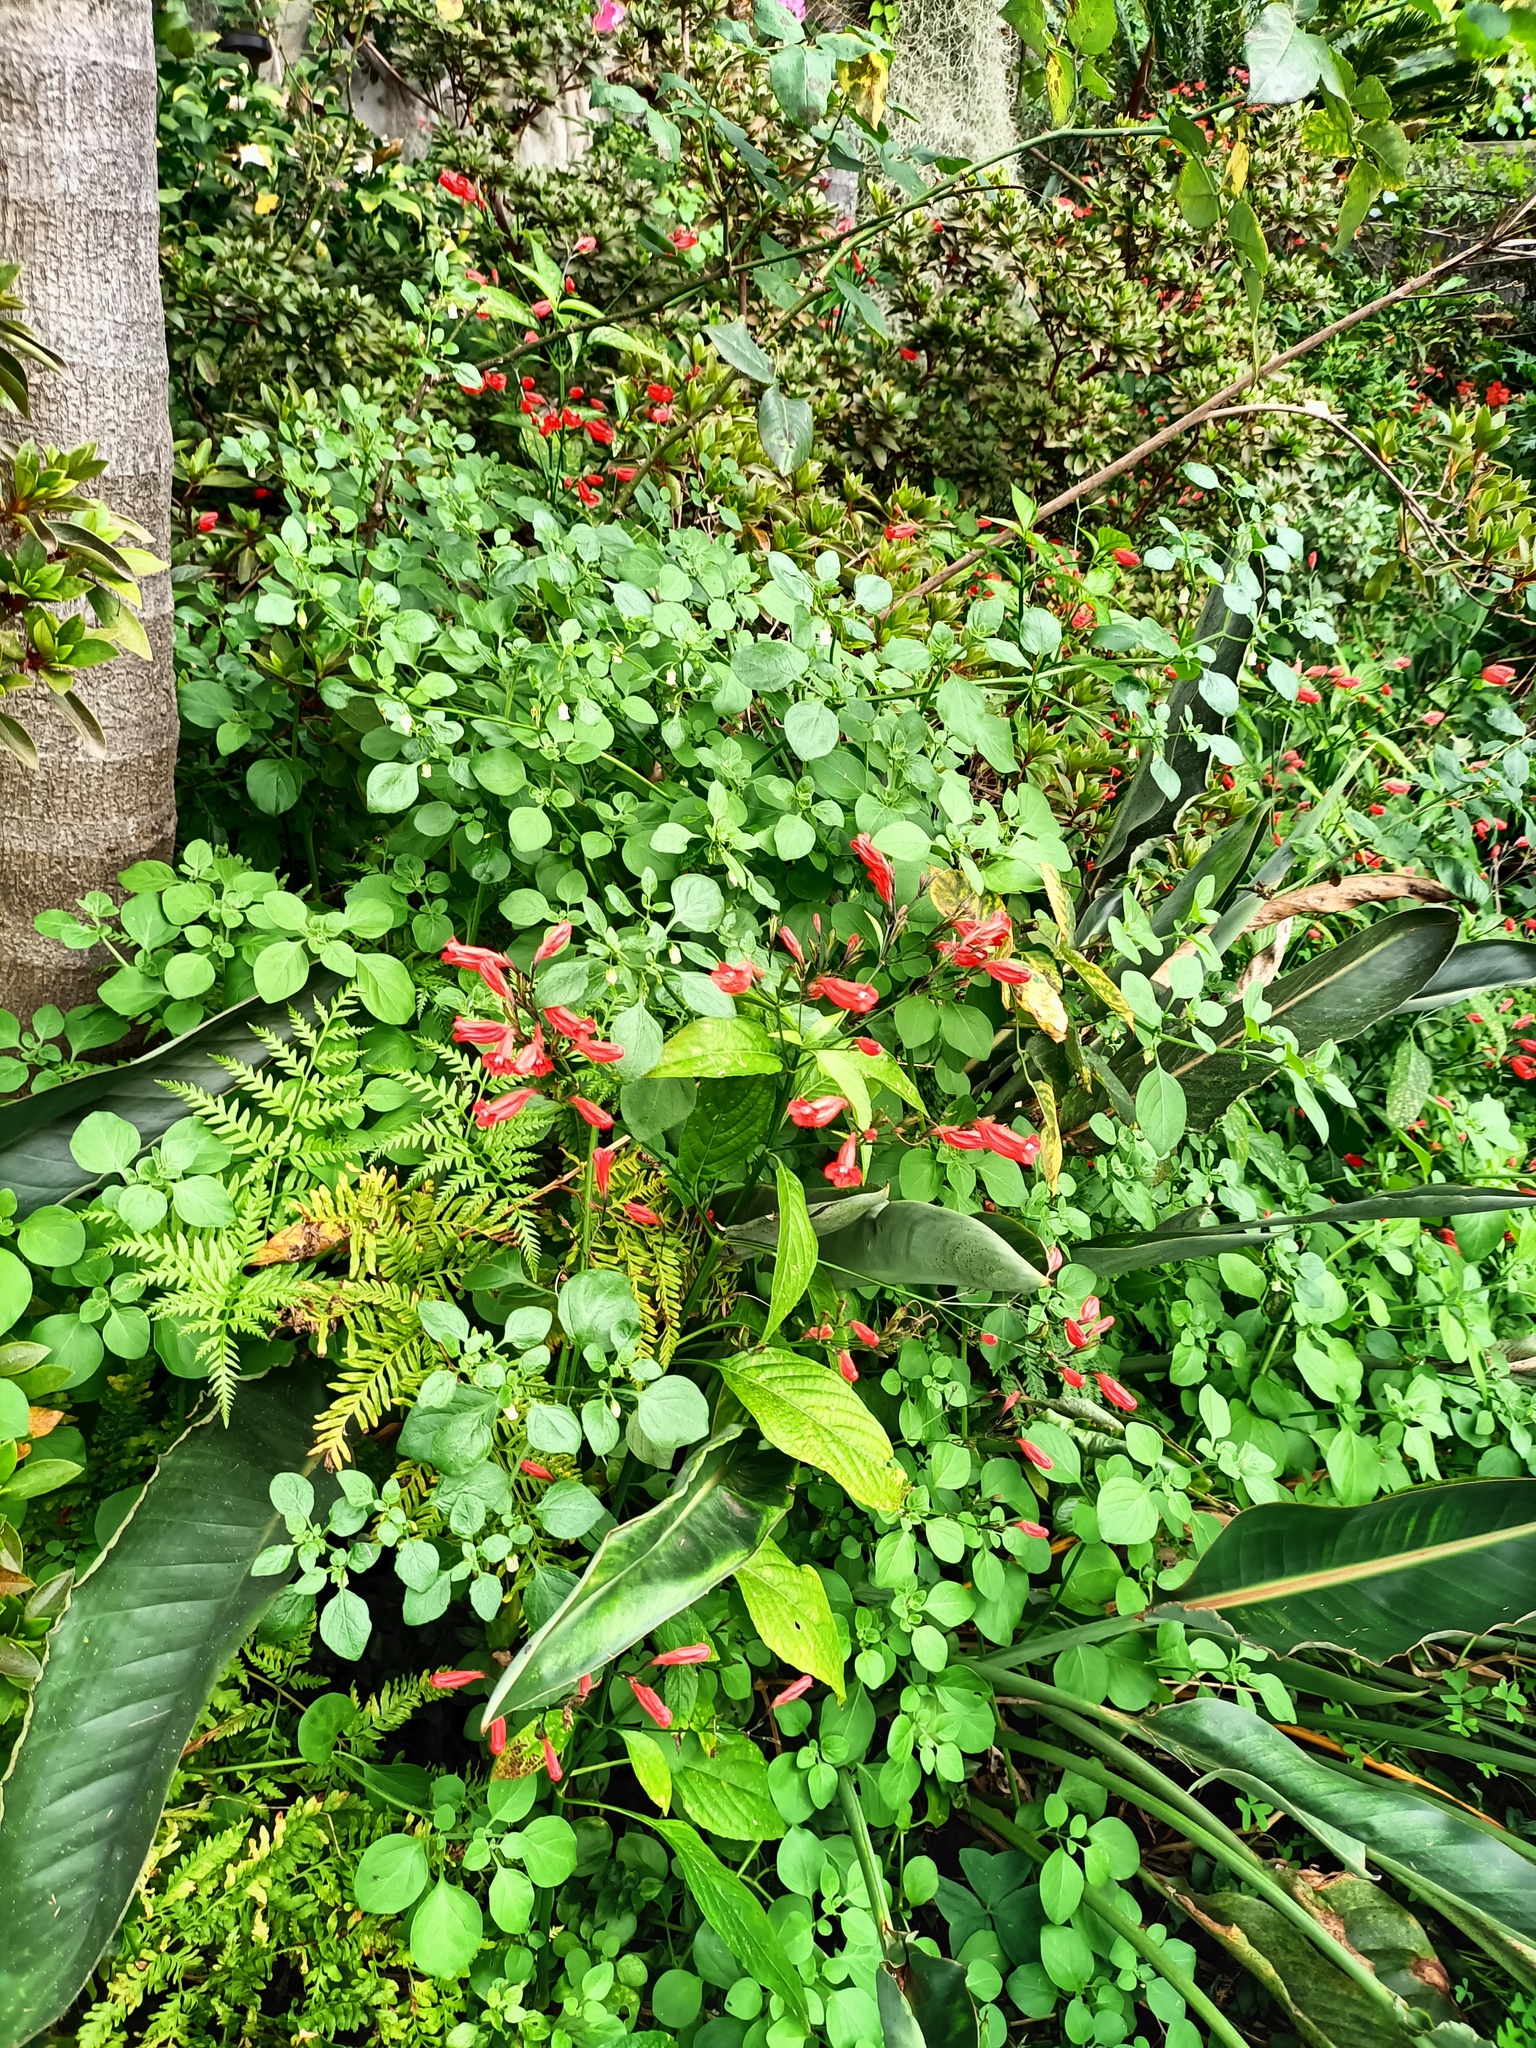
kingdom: Plantae
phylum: Tracheophyta
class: Magnoliopsida
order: Solanales
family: Solanaceae
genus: Salpichroa
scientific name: Salpichroa origanifolia
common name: Lily-of-the-valley-vine
